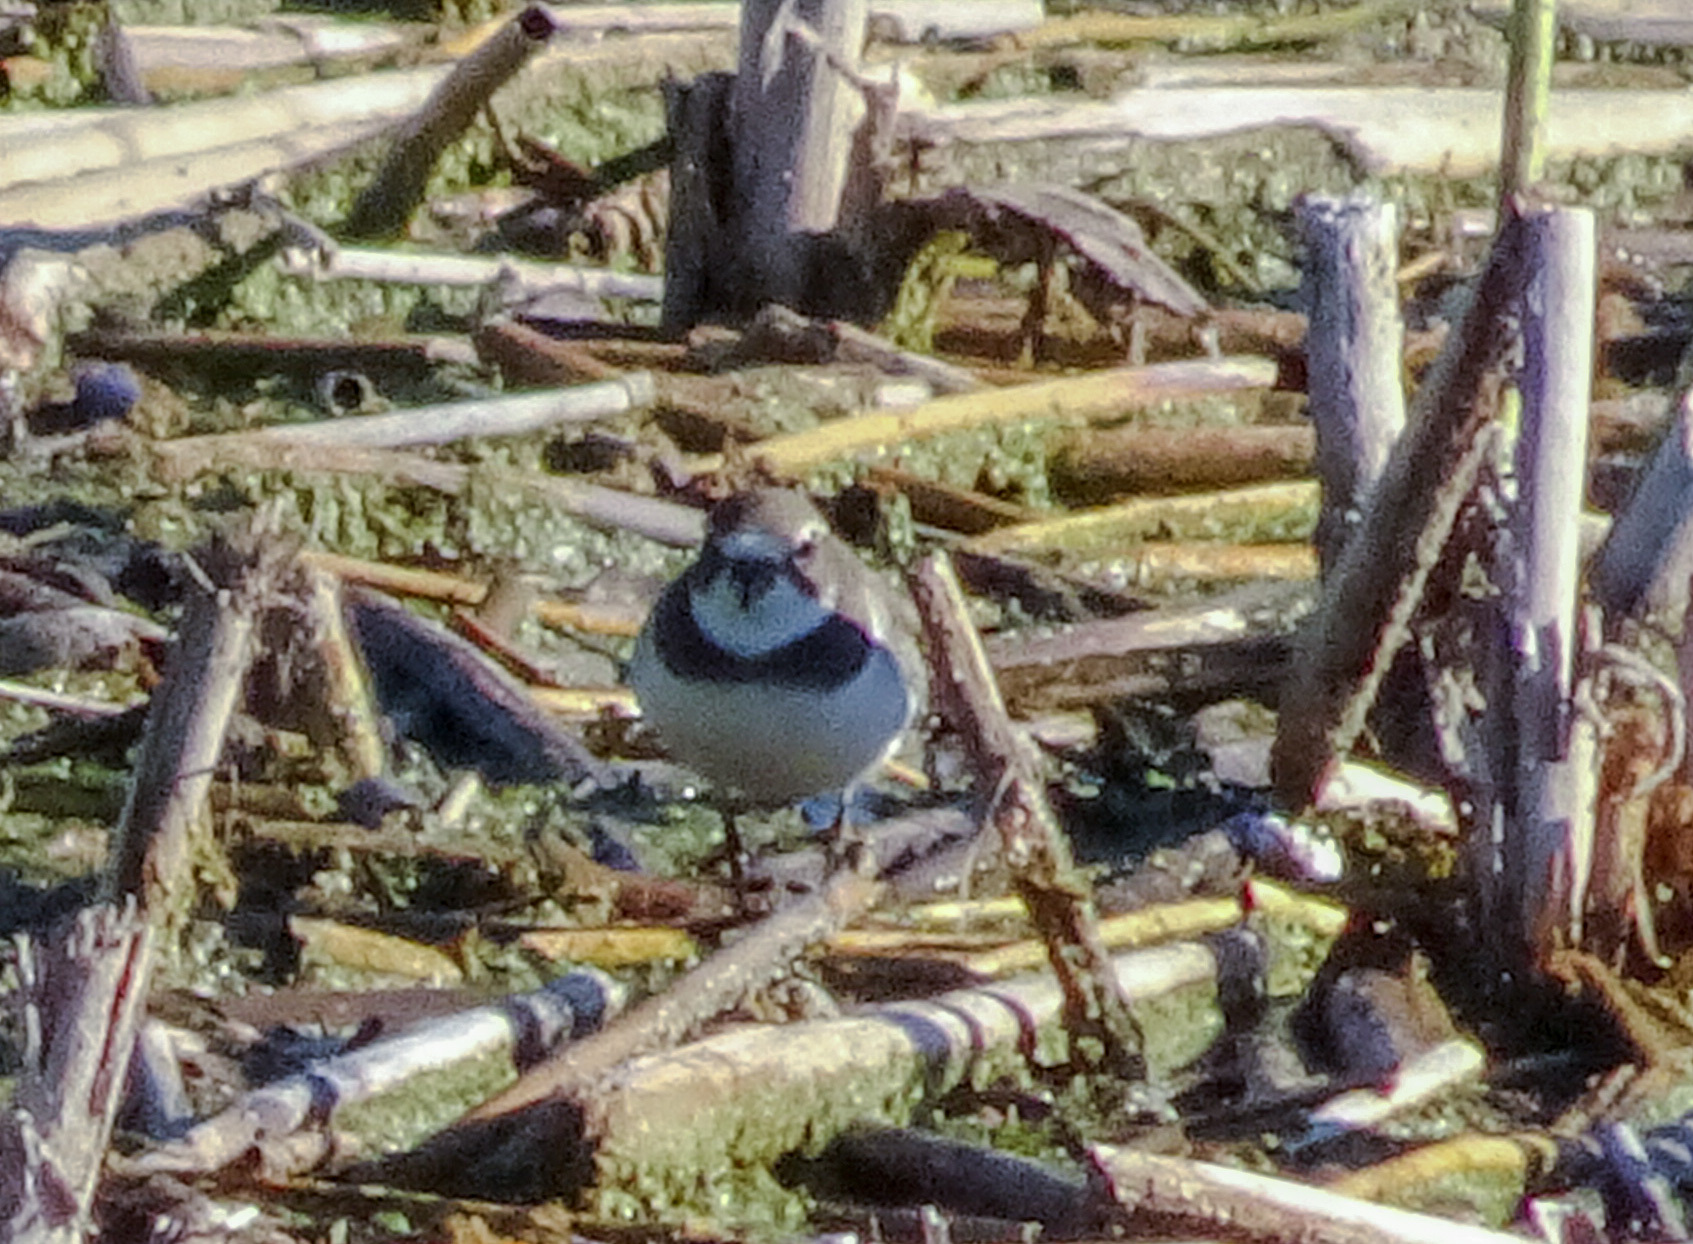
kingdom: Animalia
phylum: Chordata
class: Aves
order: Charadriiformes
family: Charadriidae
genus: Charadrius
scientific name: Charadrius semipalmatus
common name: Semipalmated plover
